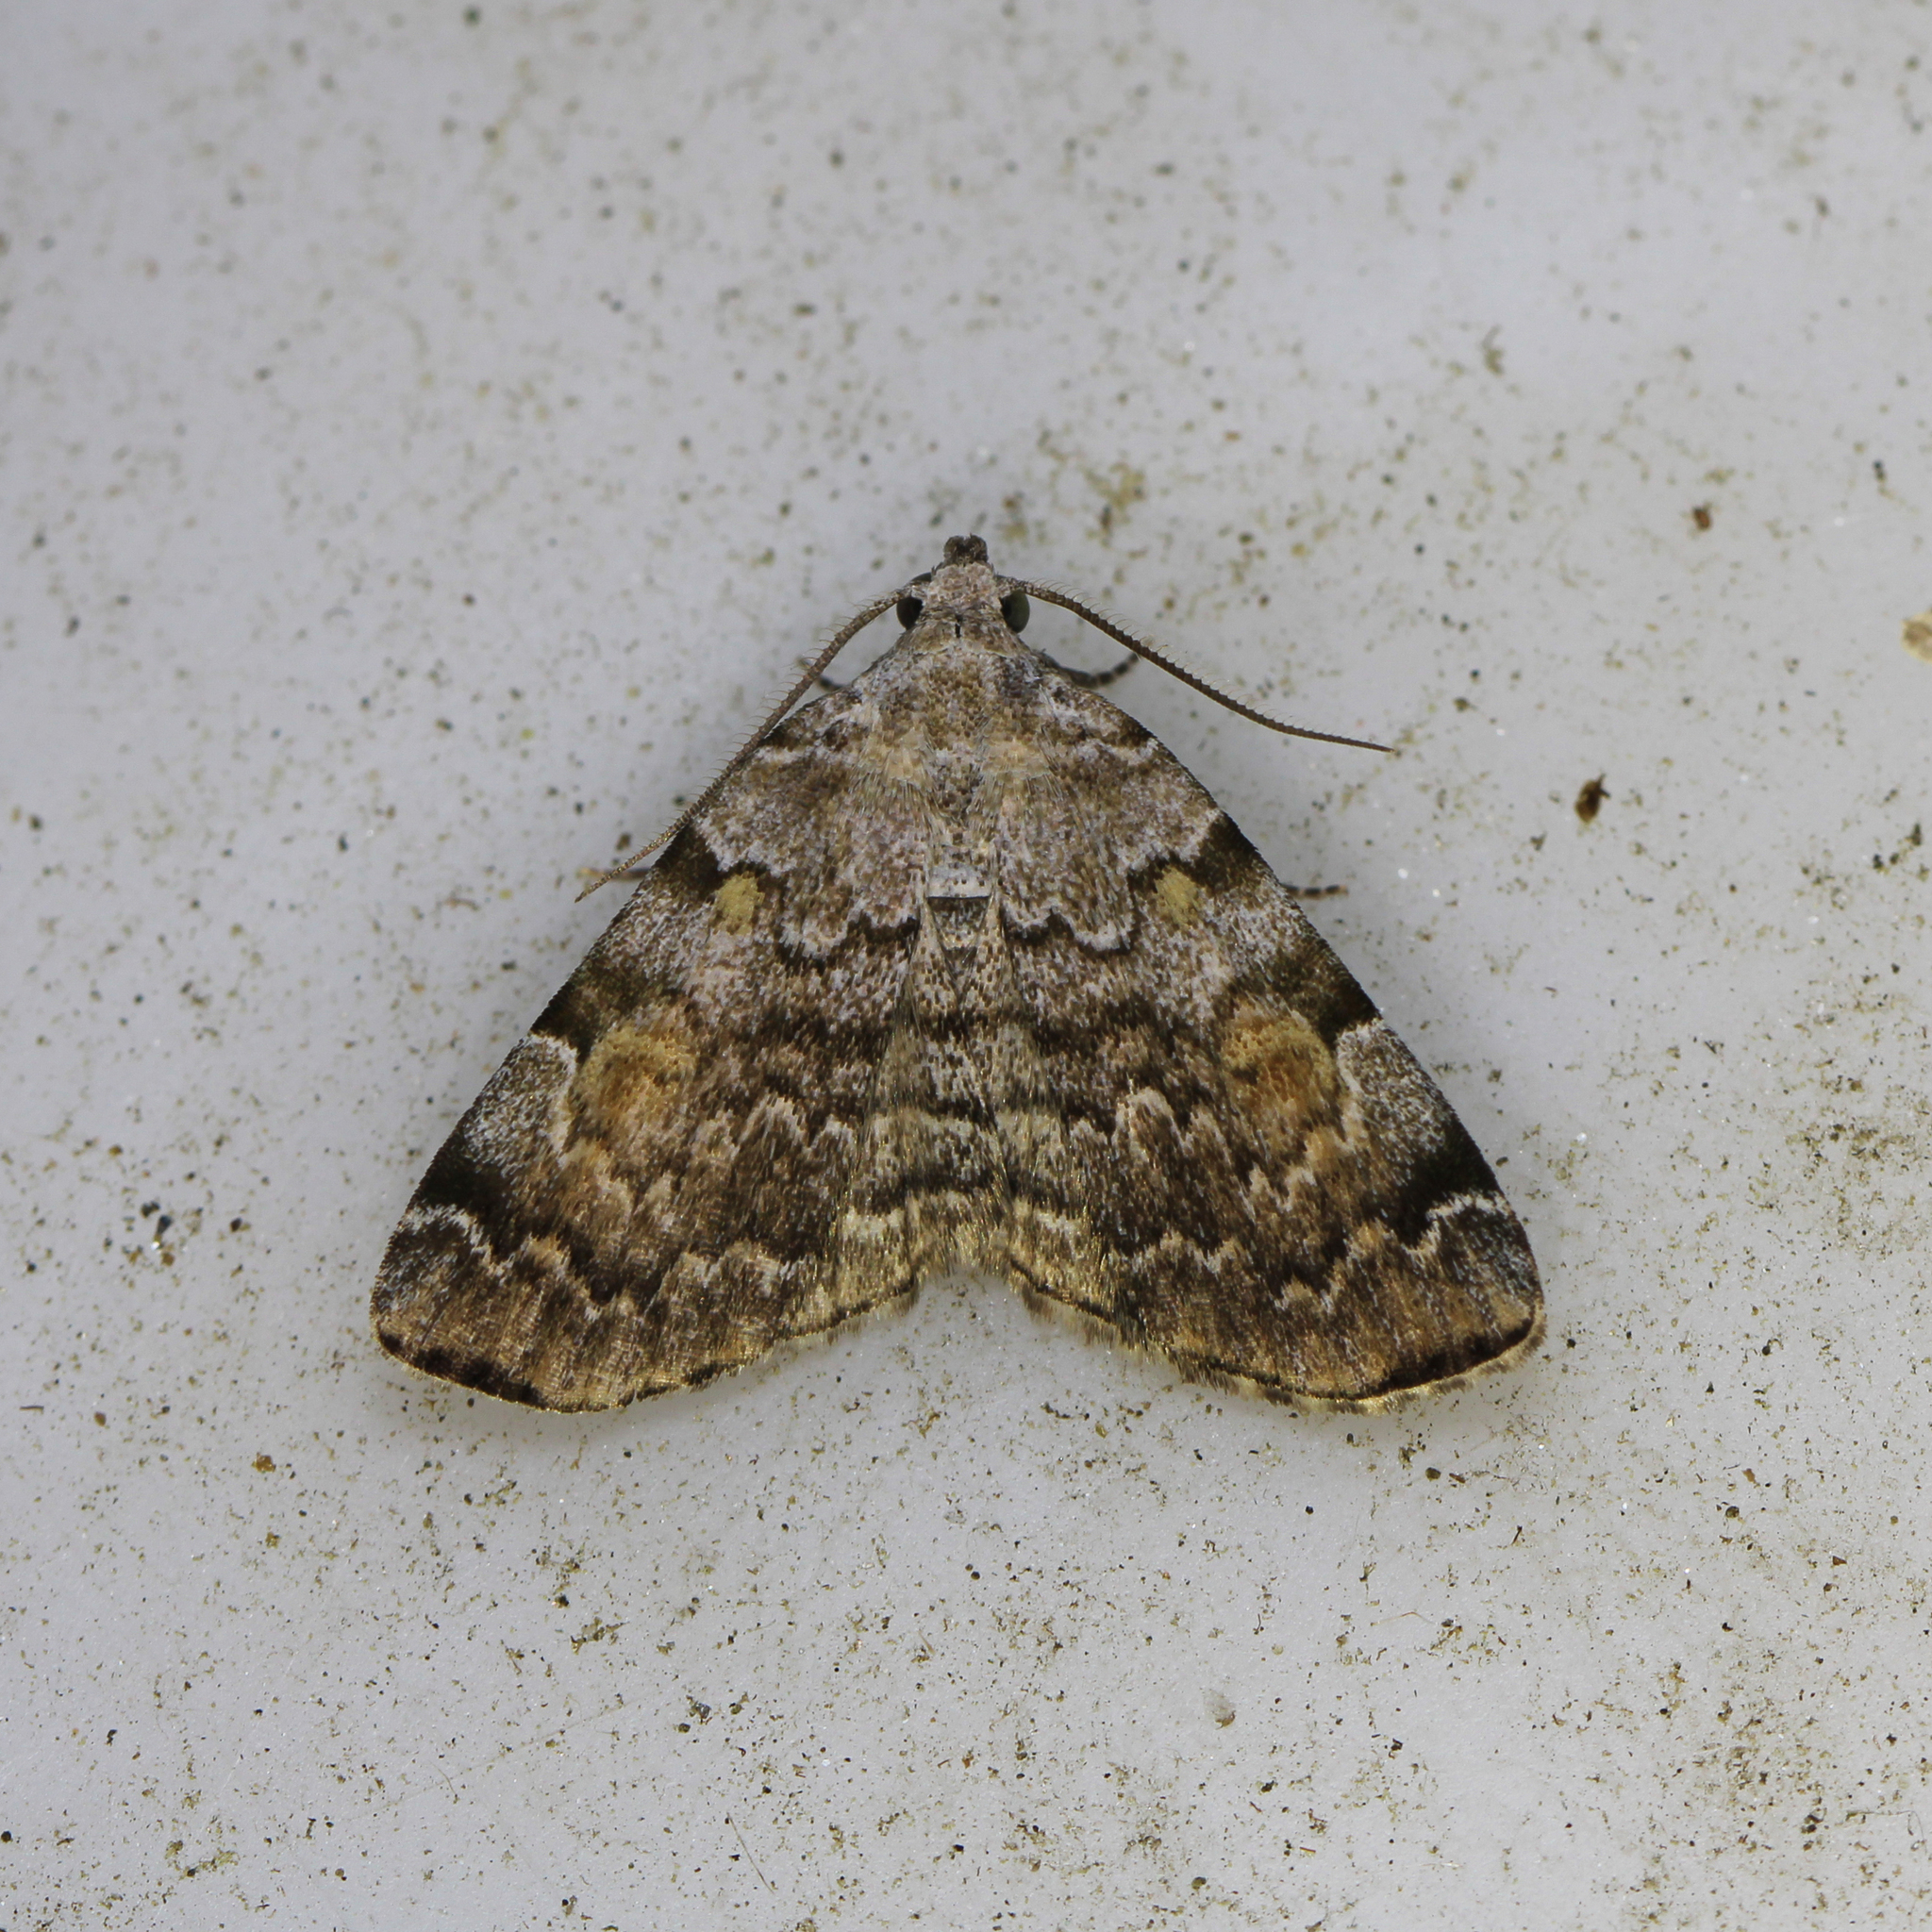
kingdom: Animalia
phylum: Arthropoda
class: Insecta
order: Lepidoptera
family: Erebidae
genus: Idia
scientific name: Idia americalis
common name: American idia moth
